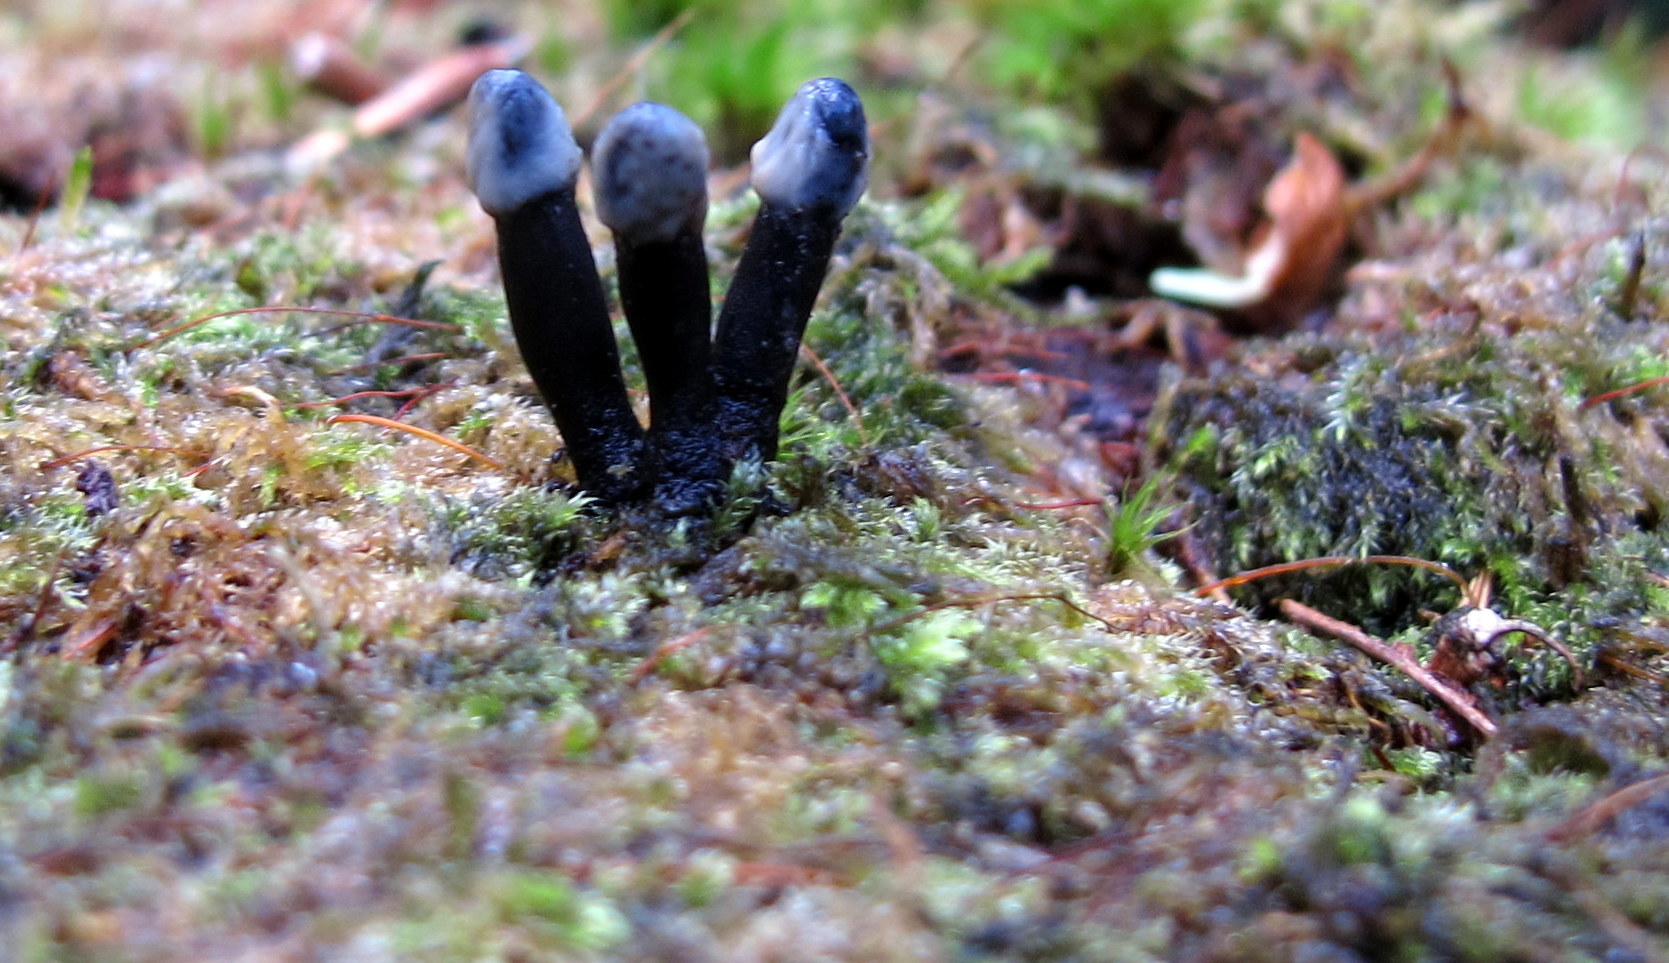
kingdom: Fungi
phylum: Ascomycota
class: Leotiomycetes
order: Helotiales
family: Bulgariaceae
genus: Holwaya
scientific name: Holwaya mucida
